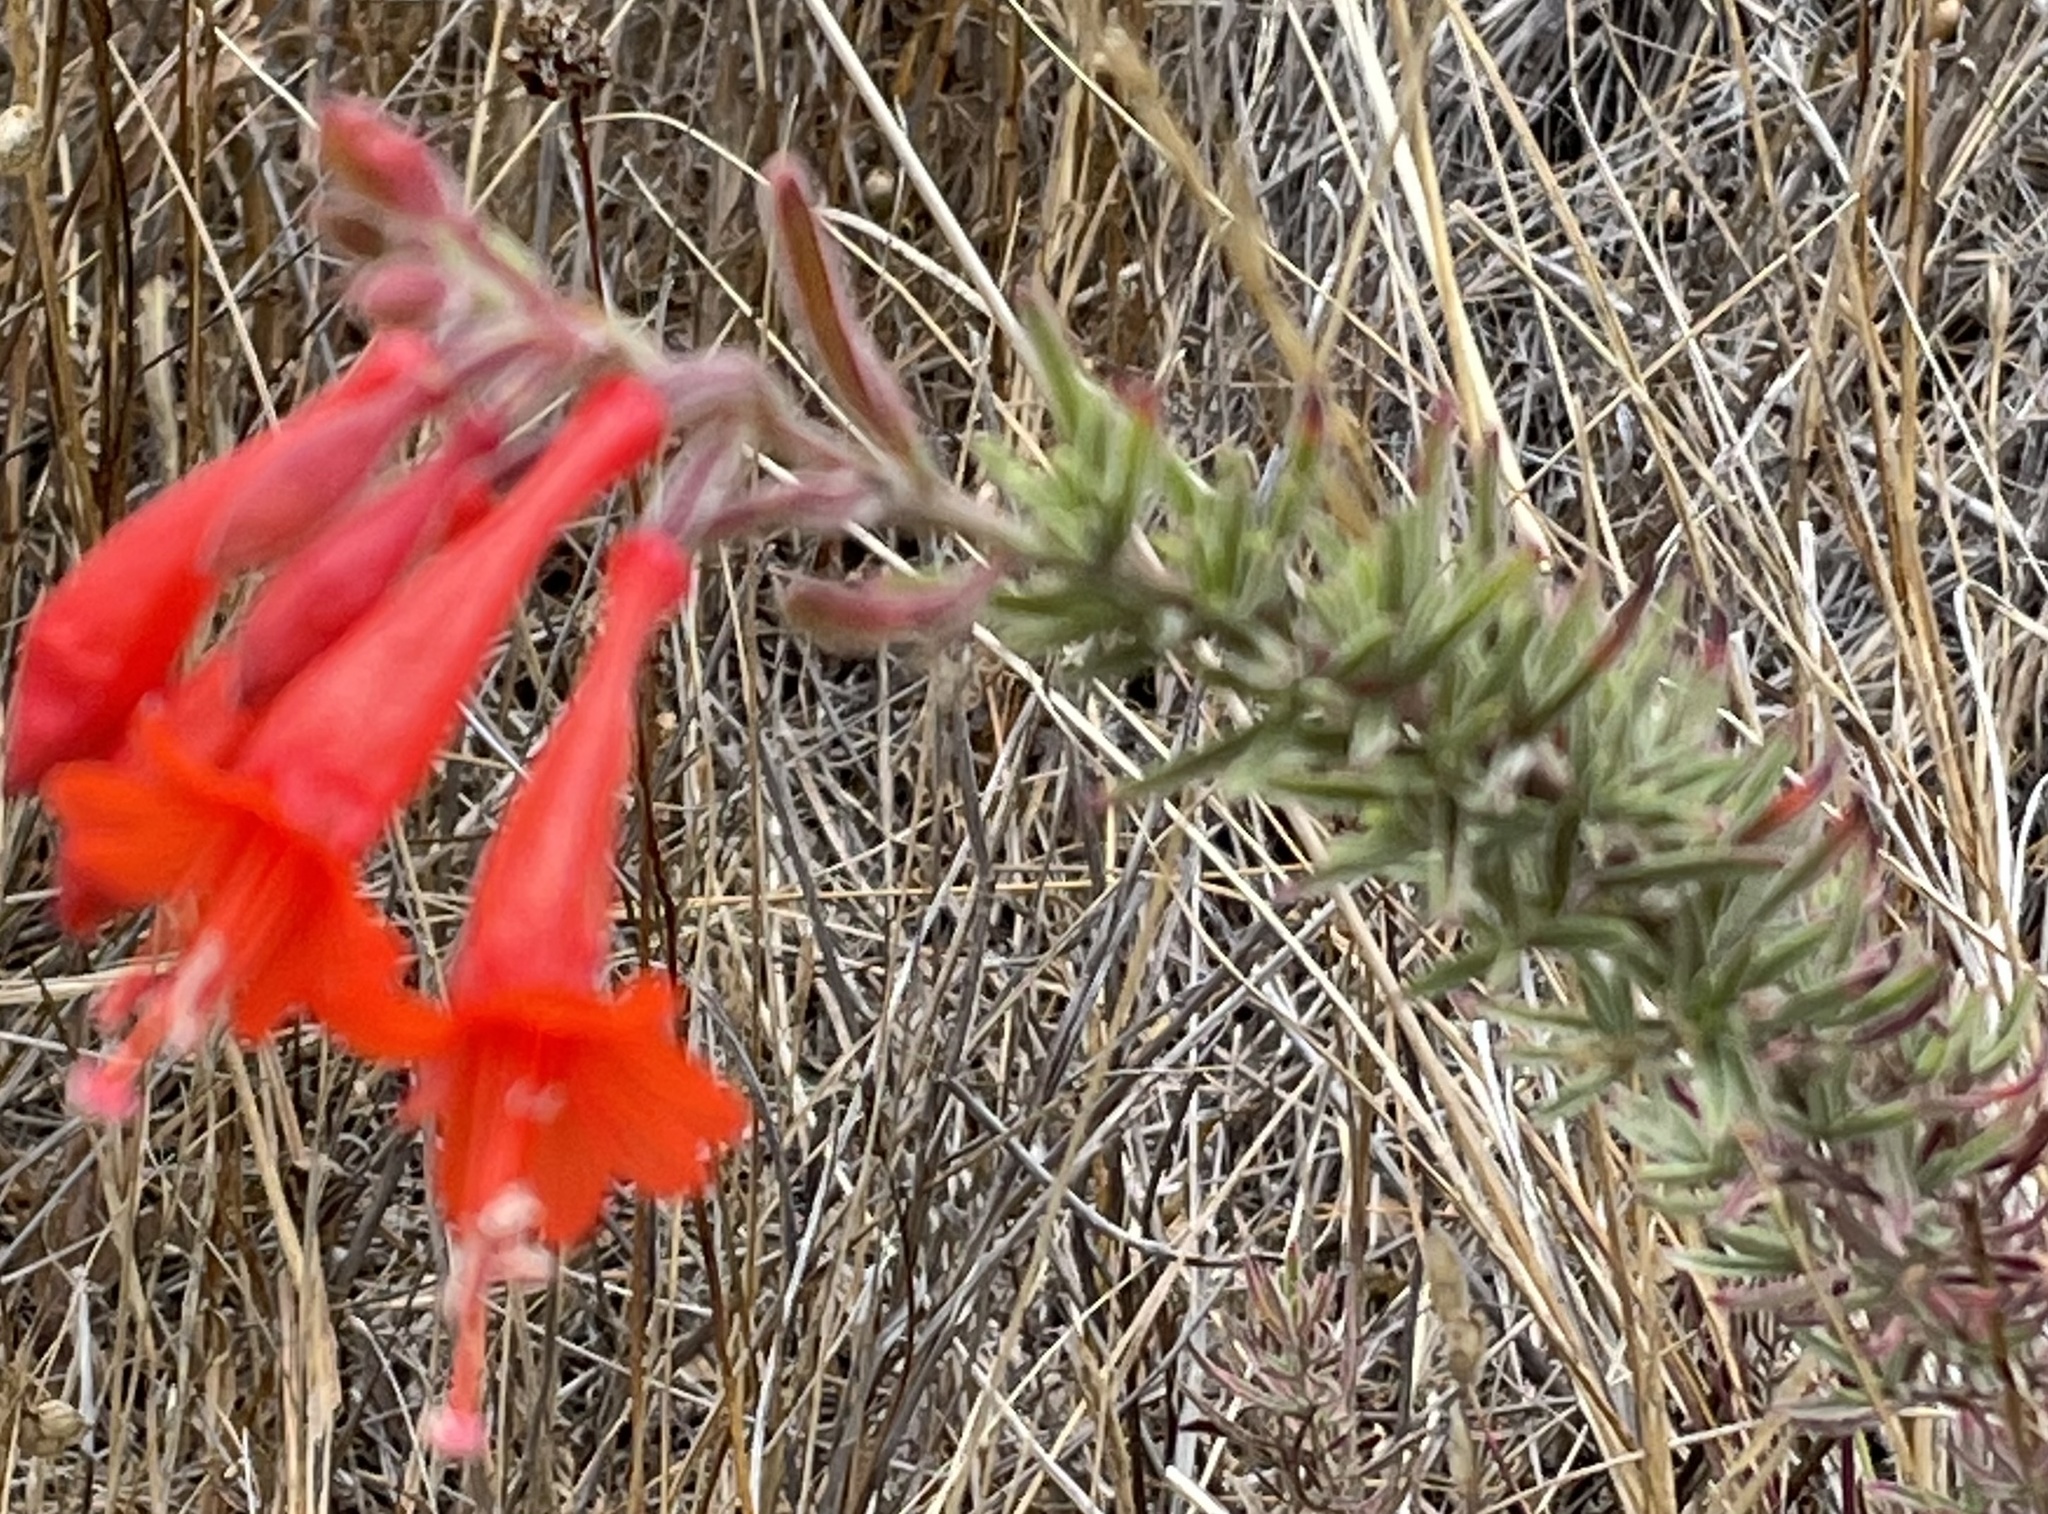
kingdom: Plantae
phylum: Tracheophyta
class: Magnoliopsida
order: Myrtales
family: Onagraceae
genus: Epilobium
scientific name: Epilobium canum
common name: California-fuchsia
